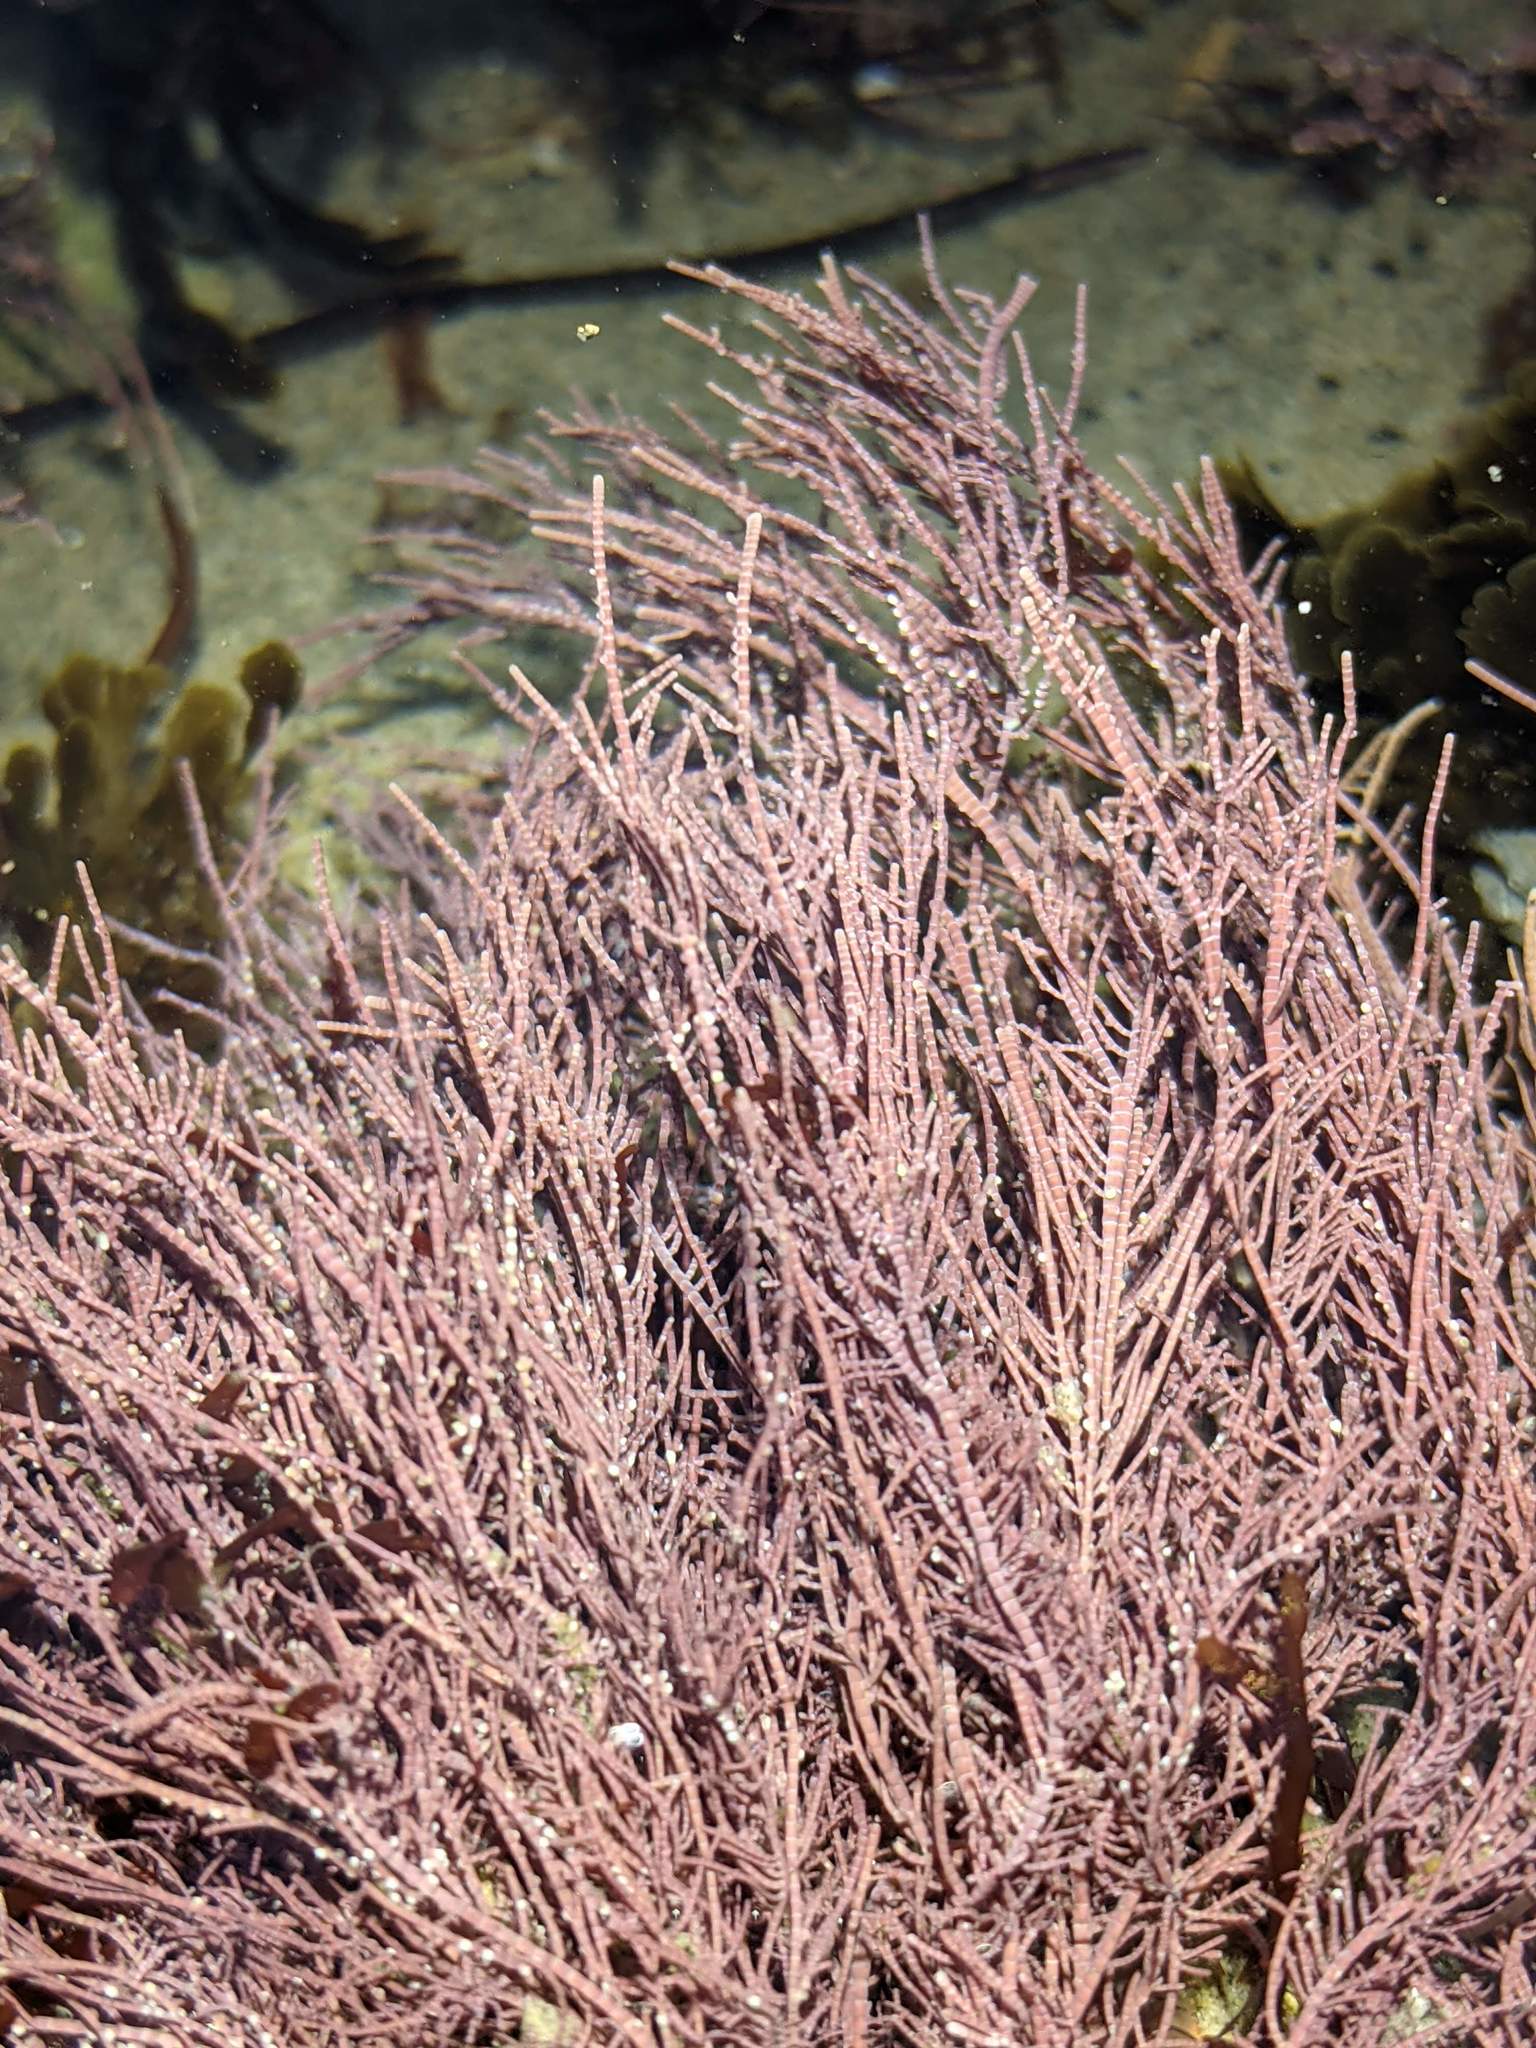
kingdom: Plantae
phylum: Rhodophyta
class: Florideophyceae
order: Corallinales
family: Lithophyllaceae
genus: Lithothrix
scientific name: Lithothrix aspergillum
